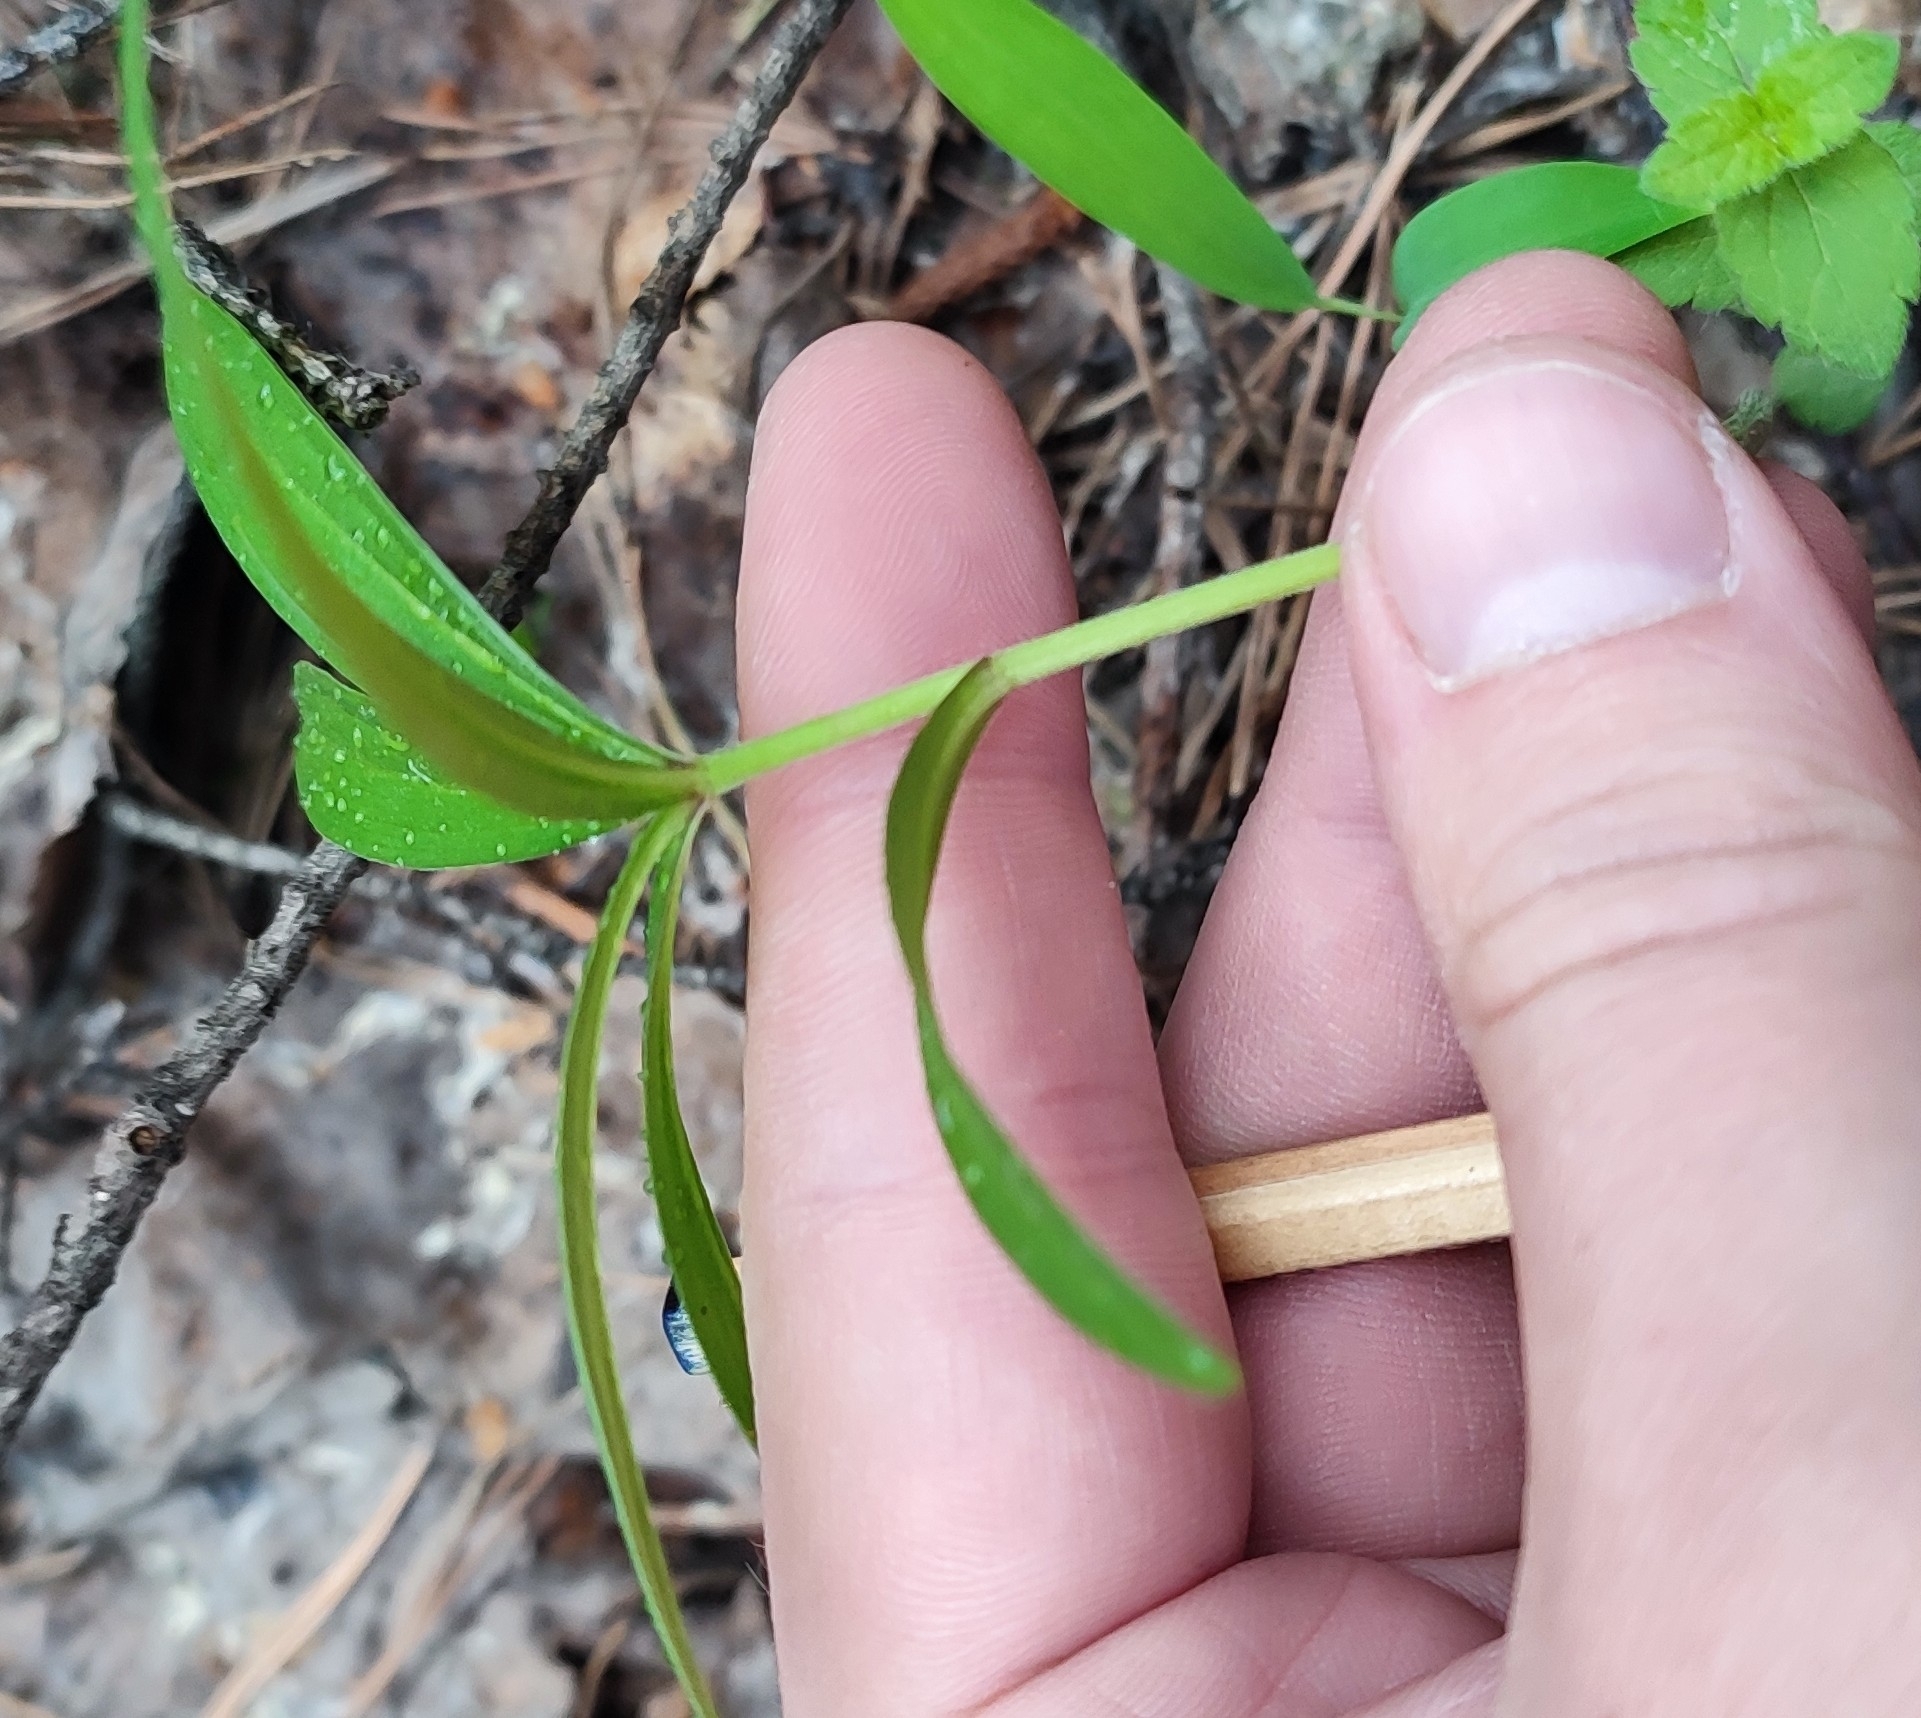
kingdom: Plantae
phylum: Tracheophyta
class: Liliopsida
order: Liliales
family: Liliaceae
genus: Lilium
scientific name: Lilium martagon
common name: Martagon lily
